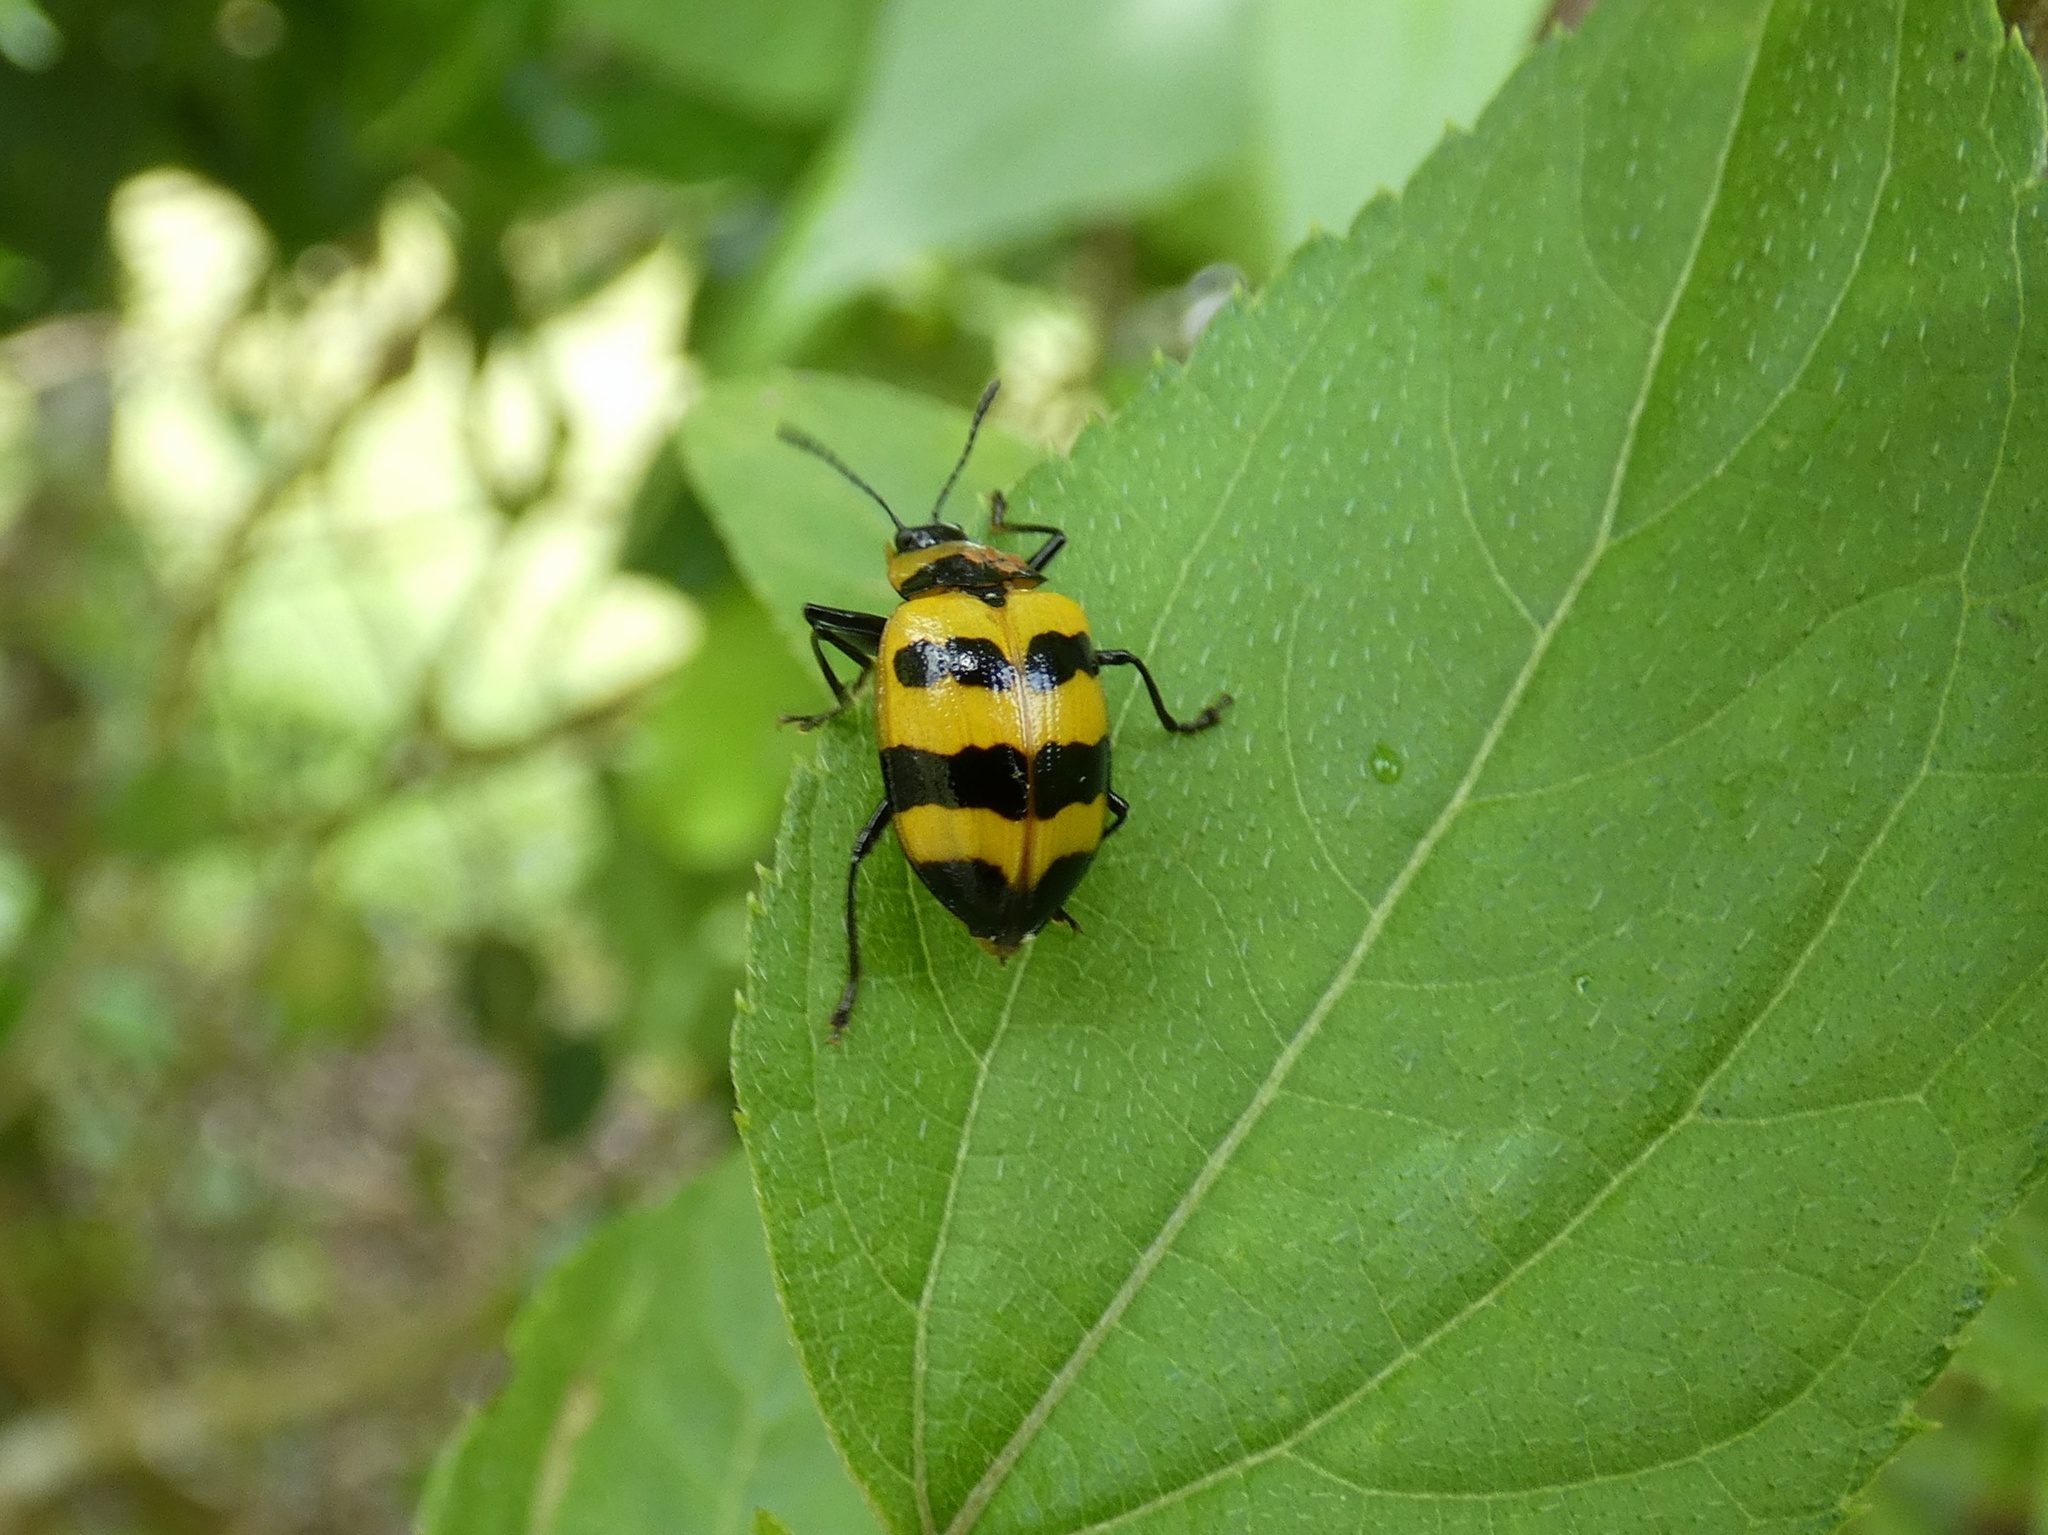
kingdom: Animalia
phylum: Arthropoda
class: Insecta
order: Coleoptera
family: Erotylidae
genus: Oligocorynus
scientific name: Oligocorynus zebra
